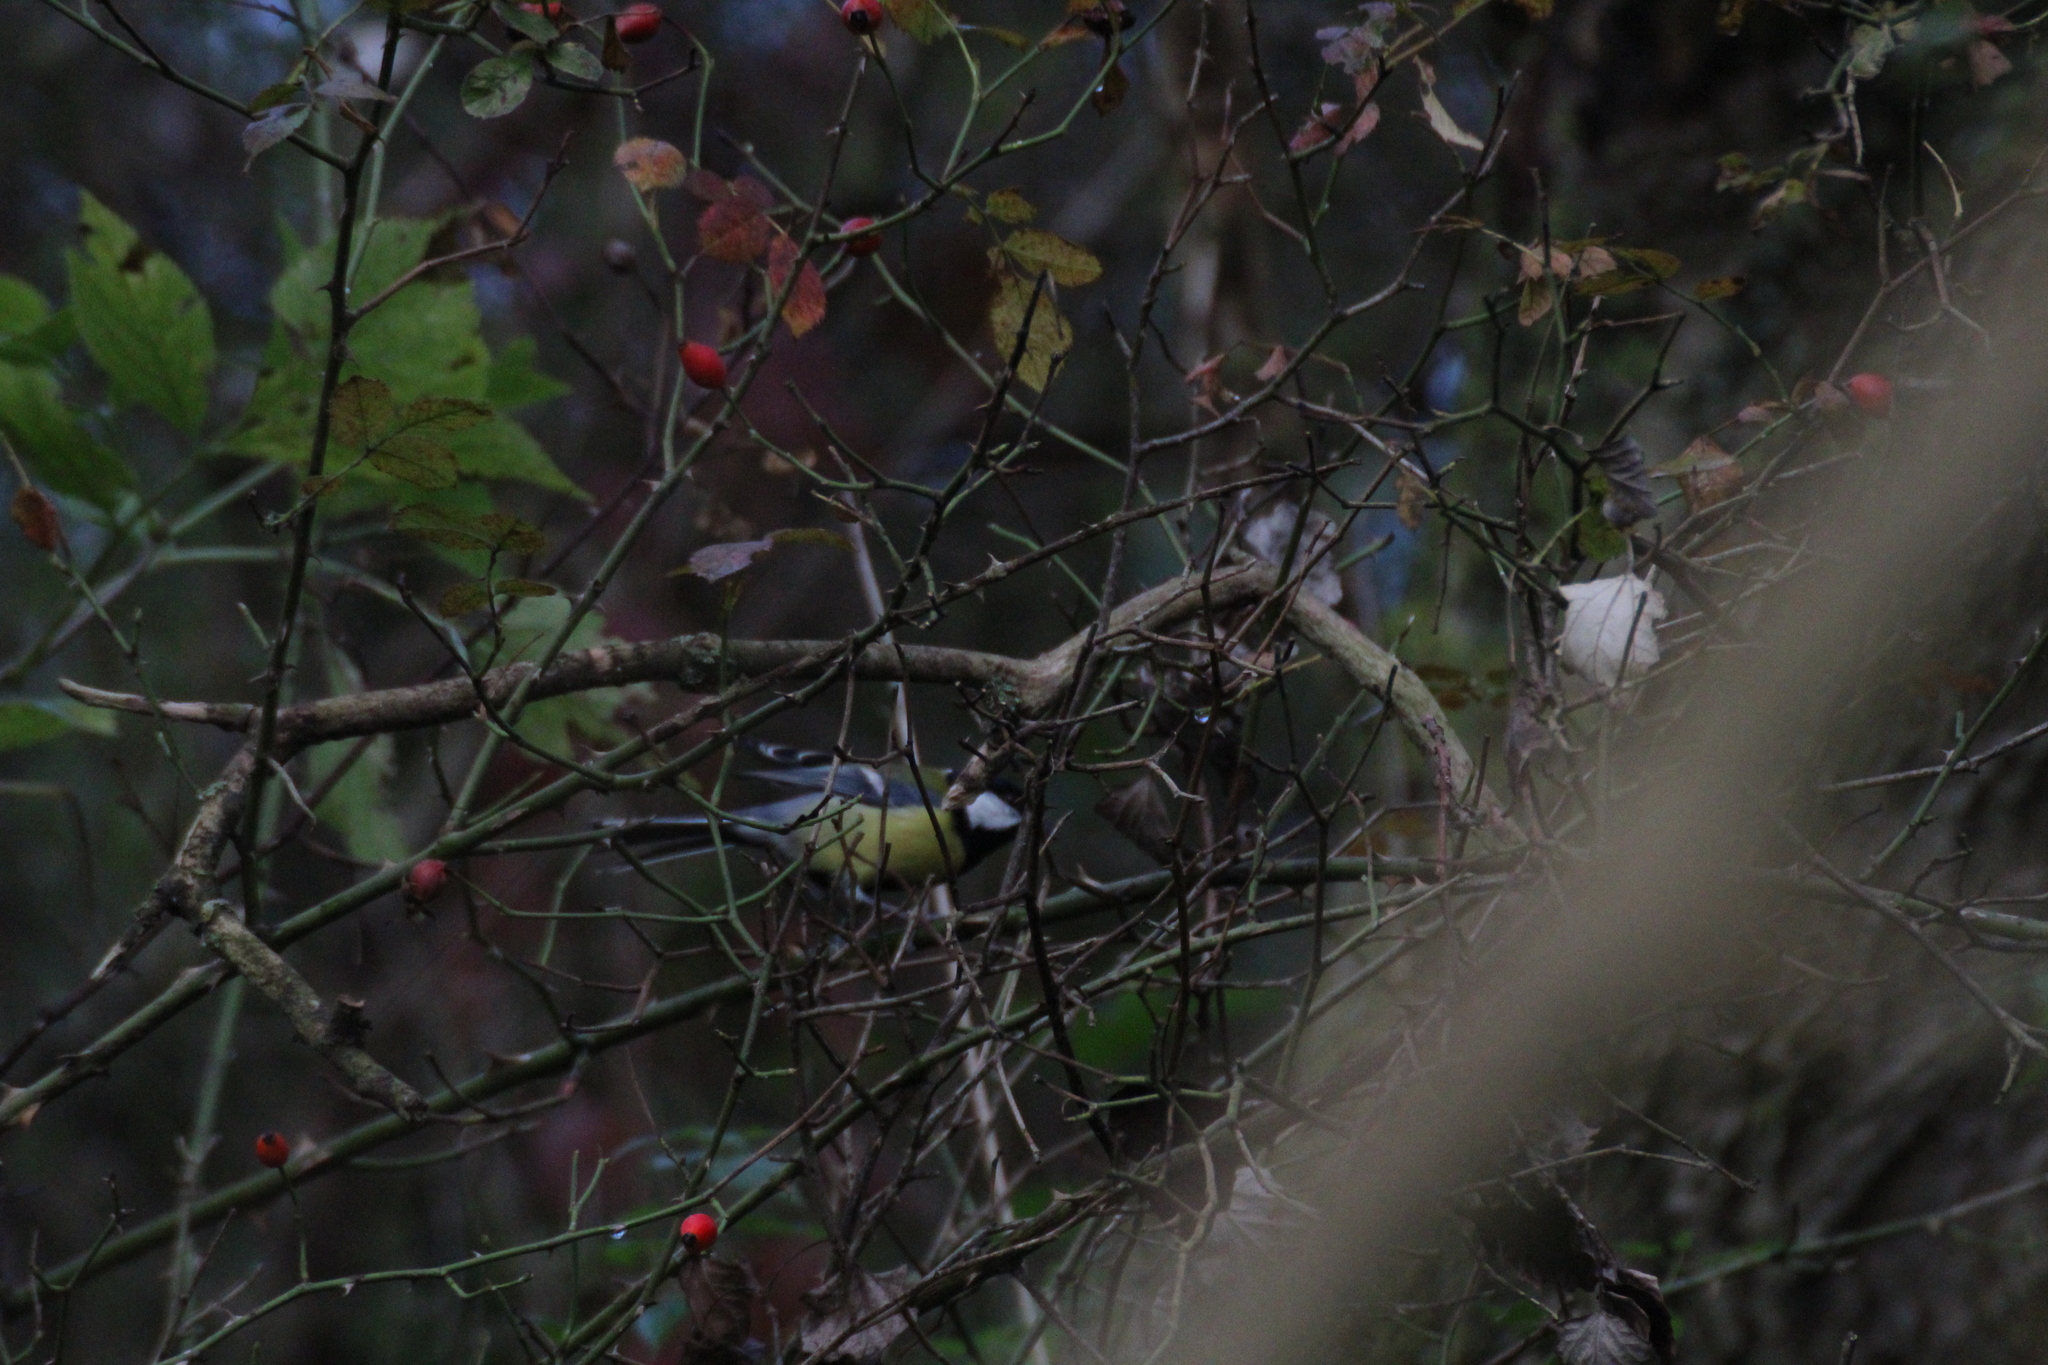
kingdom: Animalia
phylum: Chordata
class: Aves
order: Passeriformes
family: Paridae
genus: Parus
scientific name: Parus major
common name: Great tit
